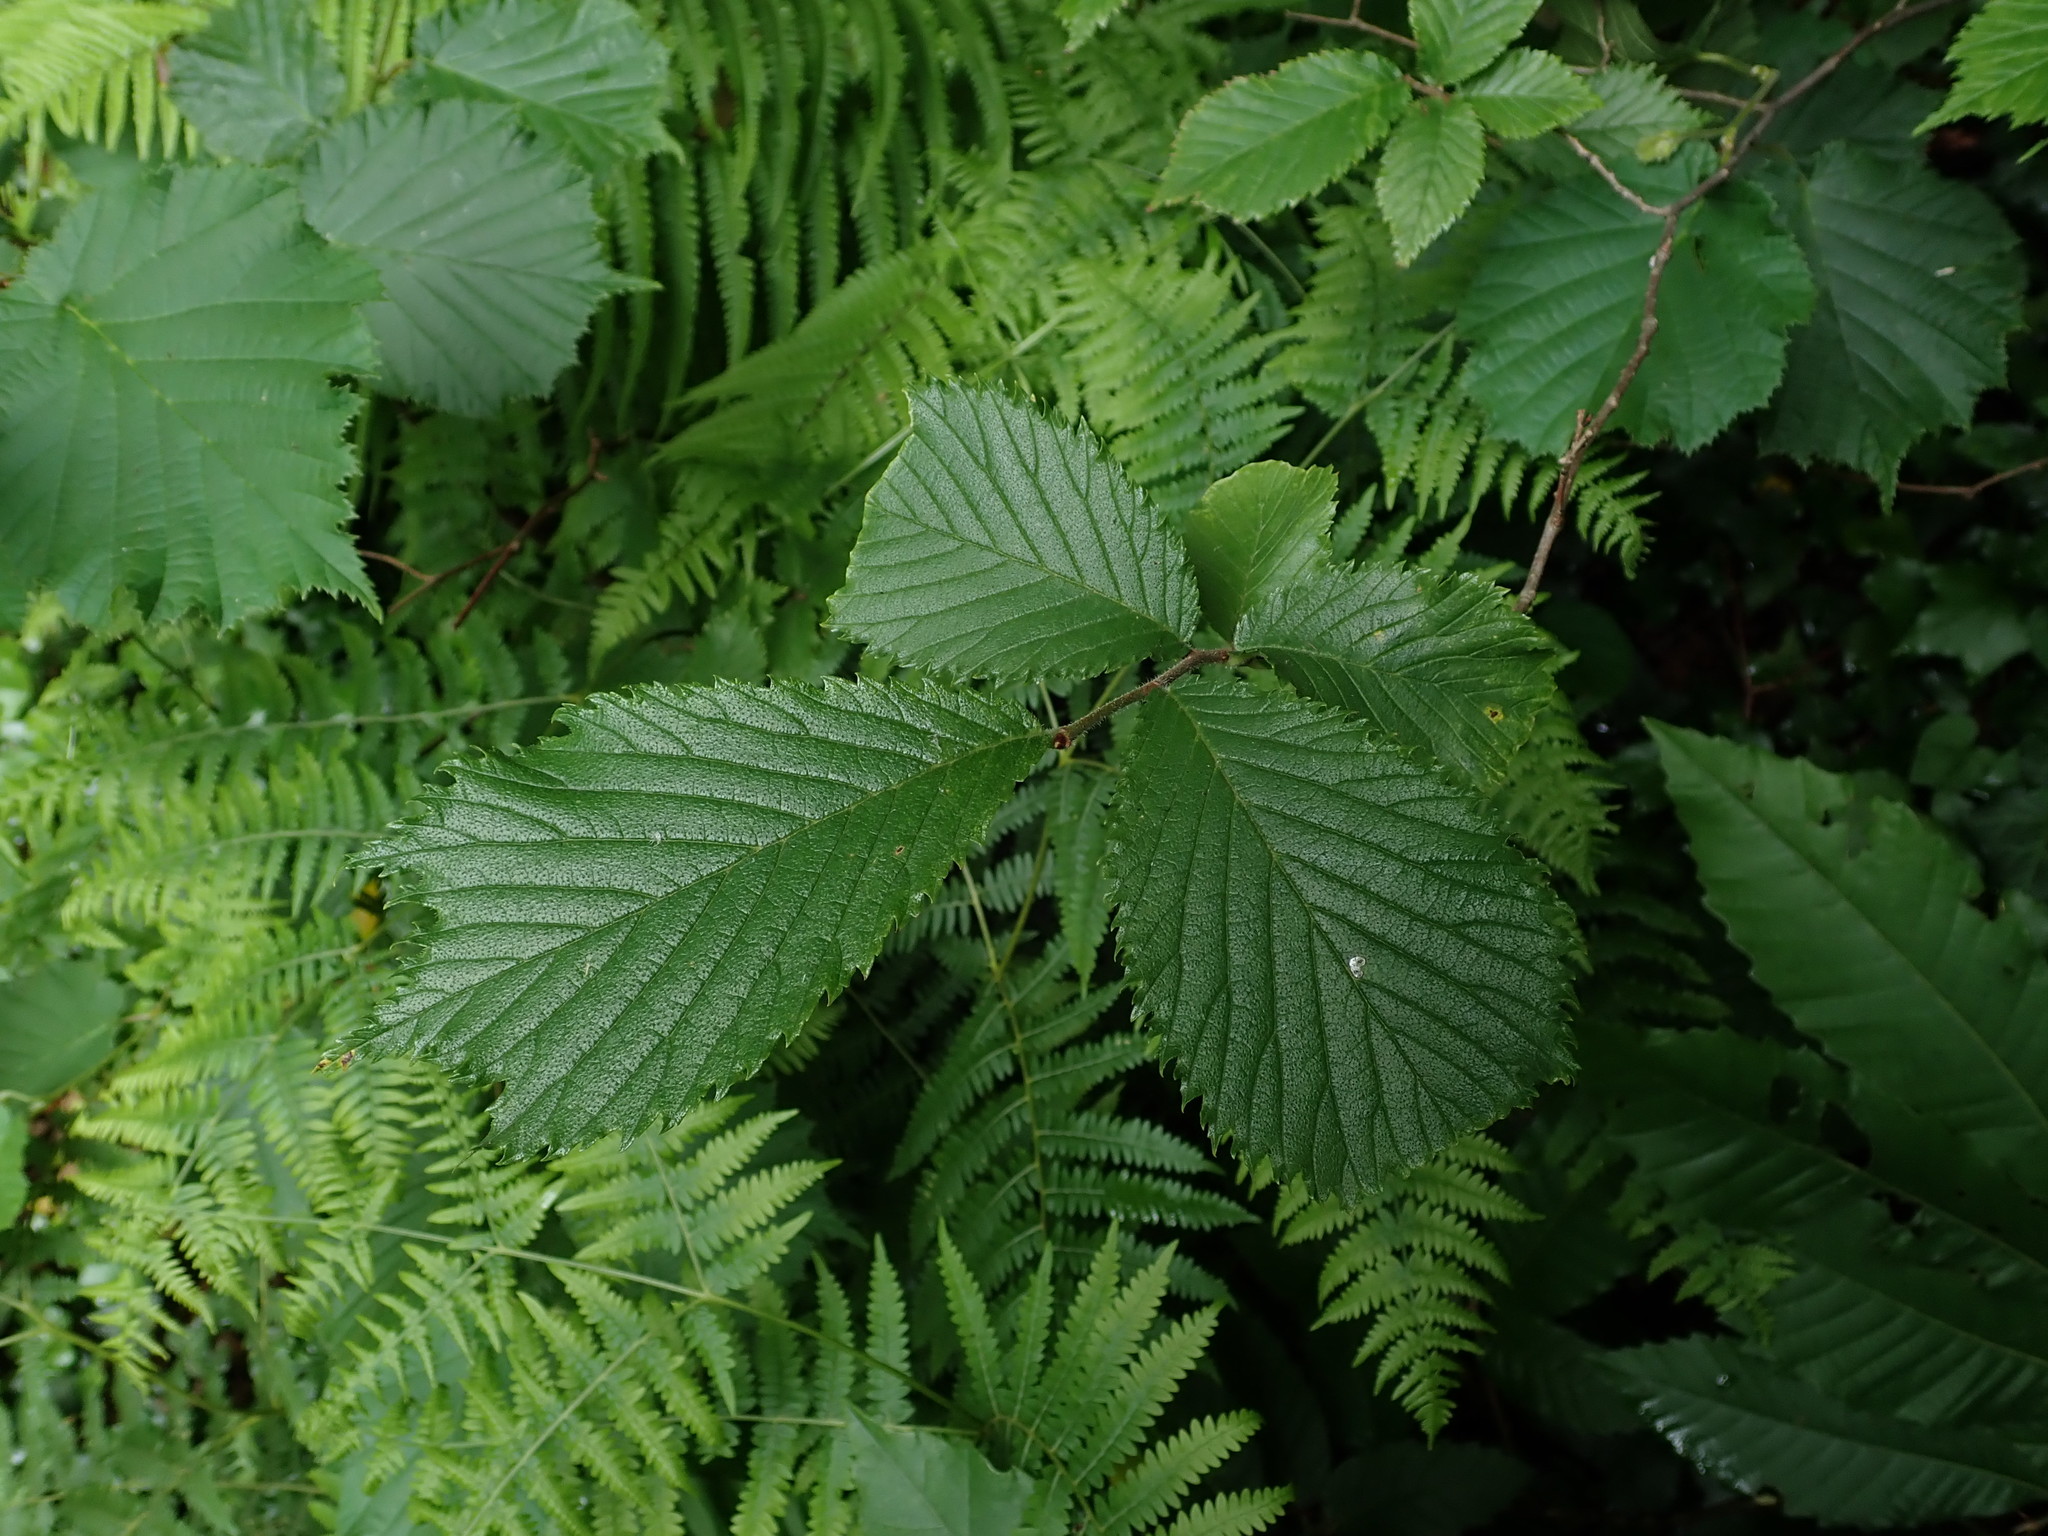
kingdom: Plantae
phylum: Tracheophyta
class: Magnoliopsida
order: Rosales
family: Ulmaceae
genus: Ulmus
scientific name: Ulmus glabra
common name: Wych elm
